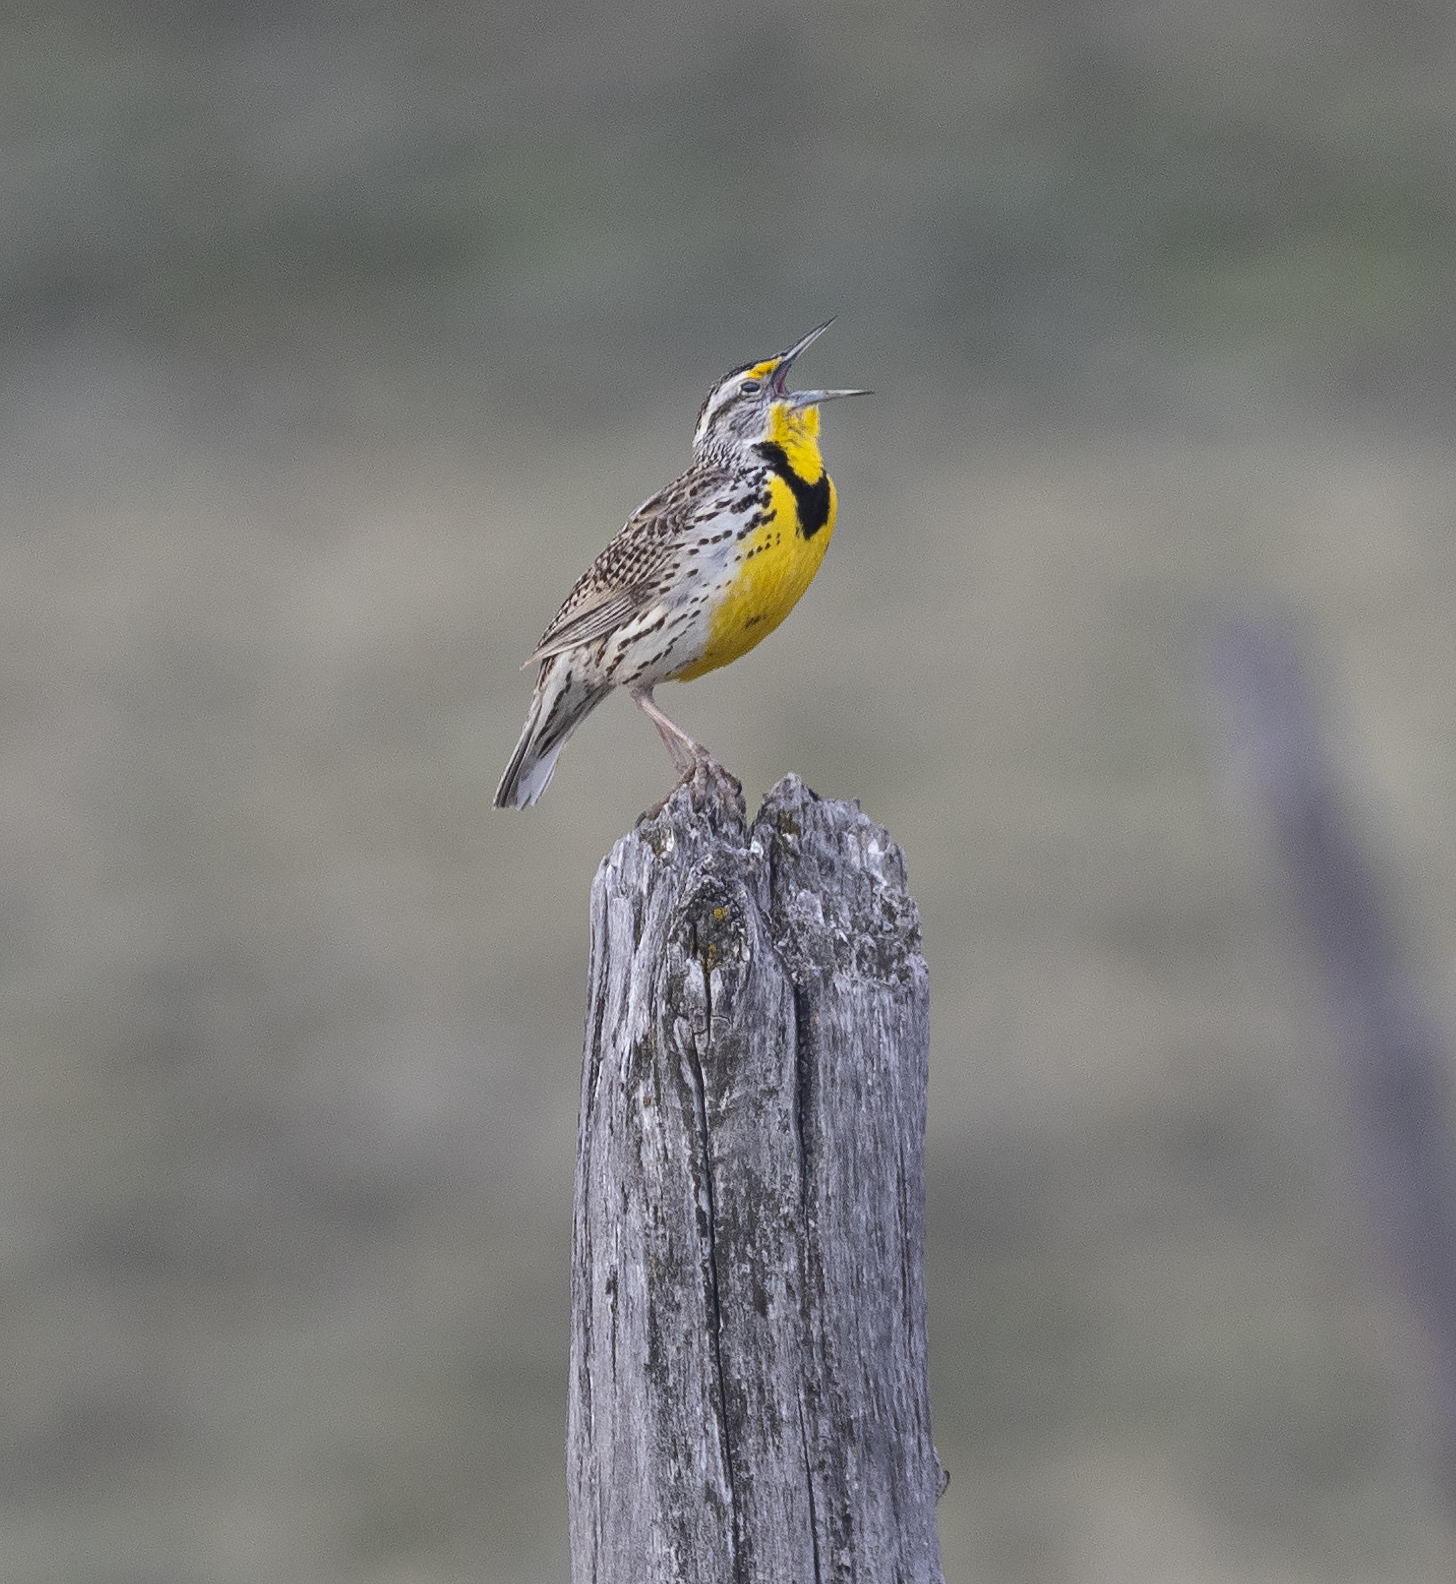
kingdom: Animalia
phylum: Chordata
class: Aves
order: Passeriformes
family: Icteridae
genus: Sturnella
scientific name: Sturnella neglecta
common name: Western meadowlark
